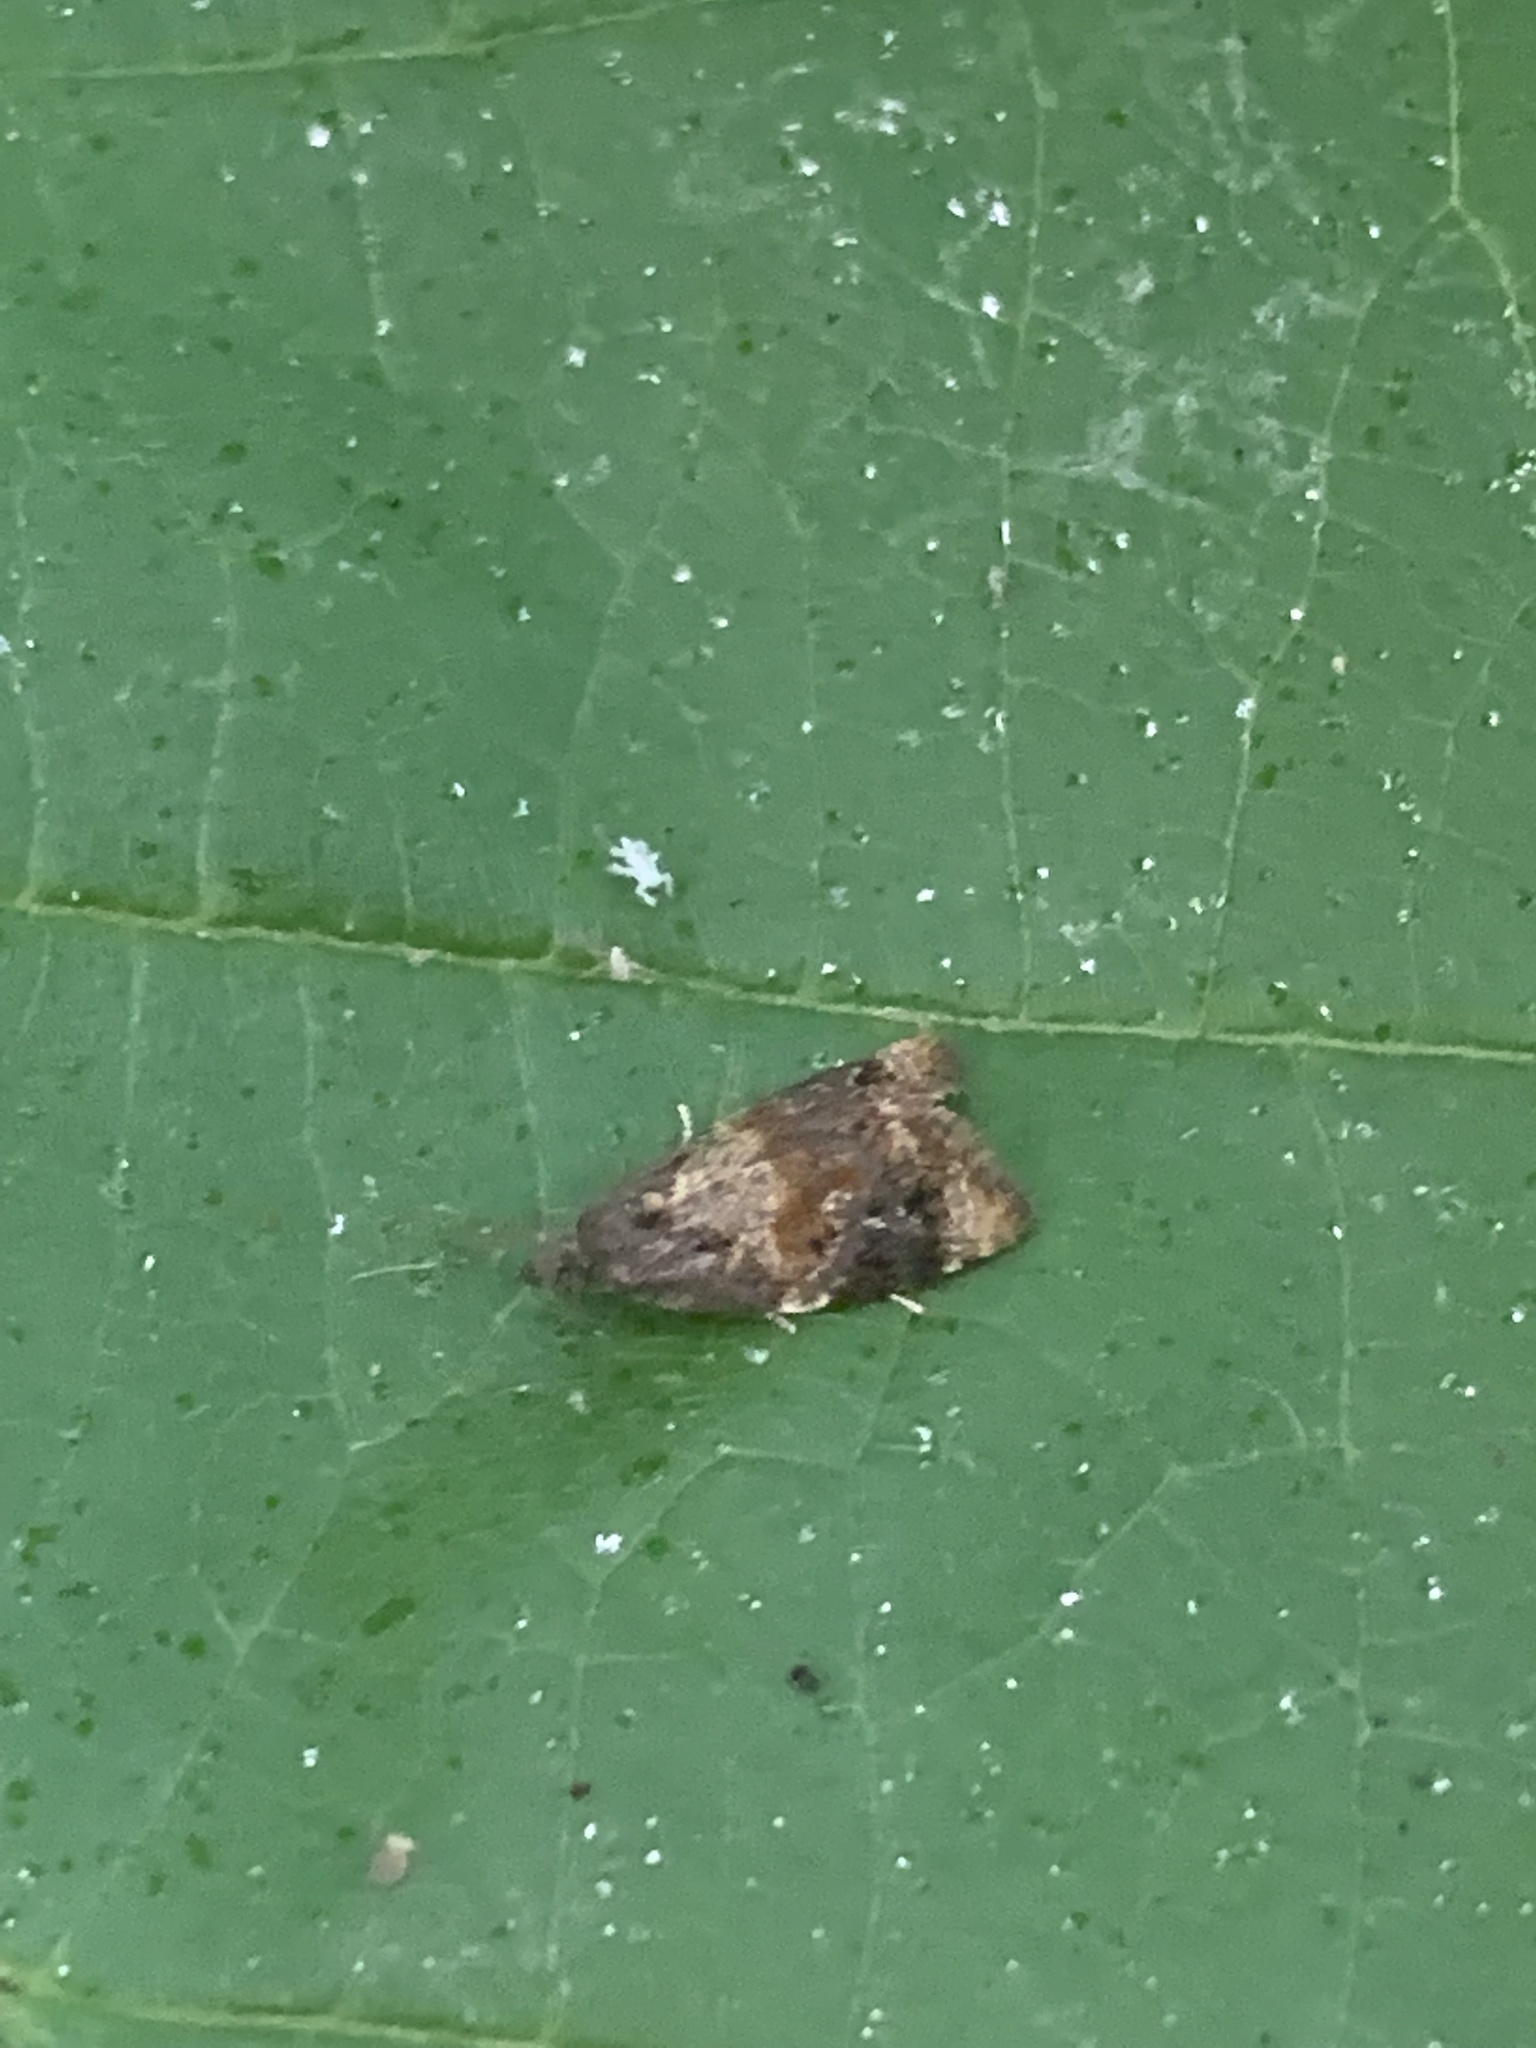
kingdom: Animalia
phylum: Arthropoda
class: Insecta
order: Lepidoptera
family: Tortricidae
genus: Ditula
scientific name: Ditula angustiorana
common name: Red-barred tortrix
